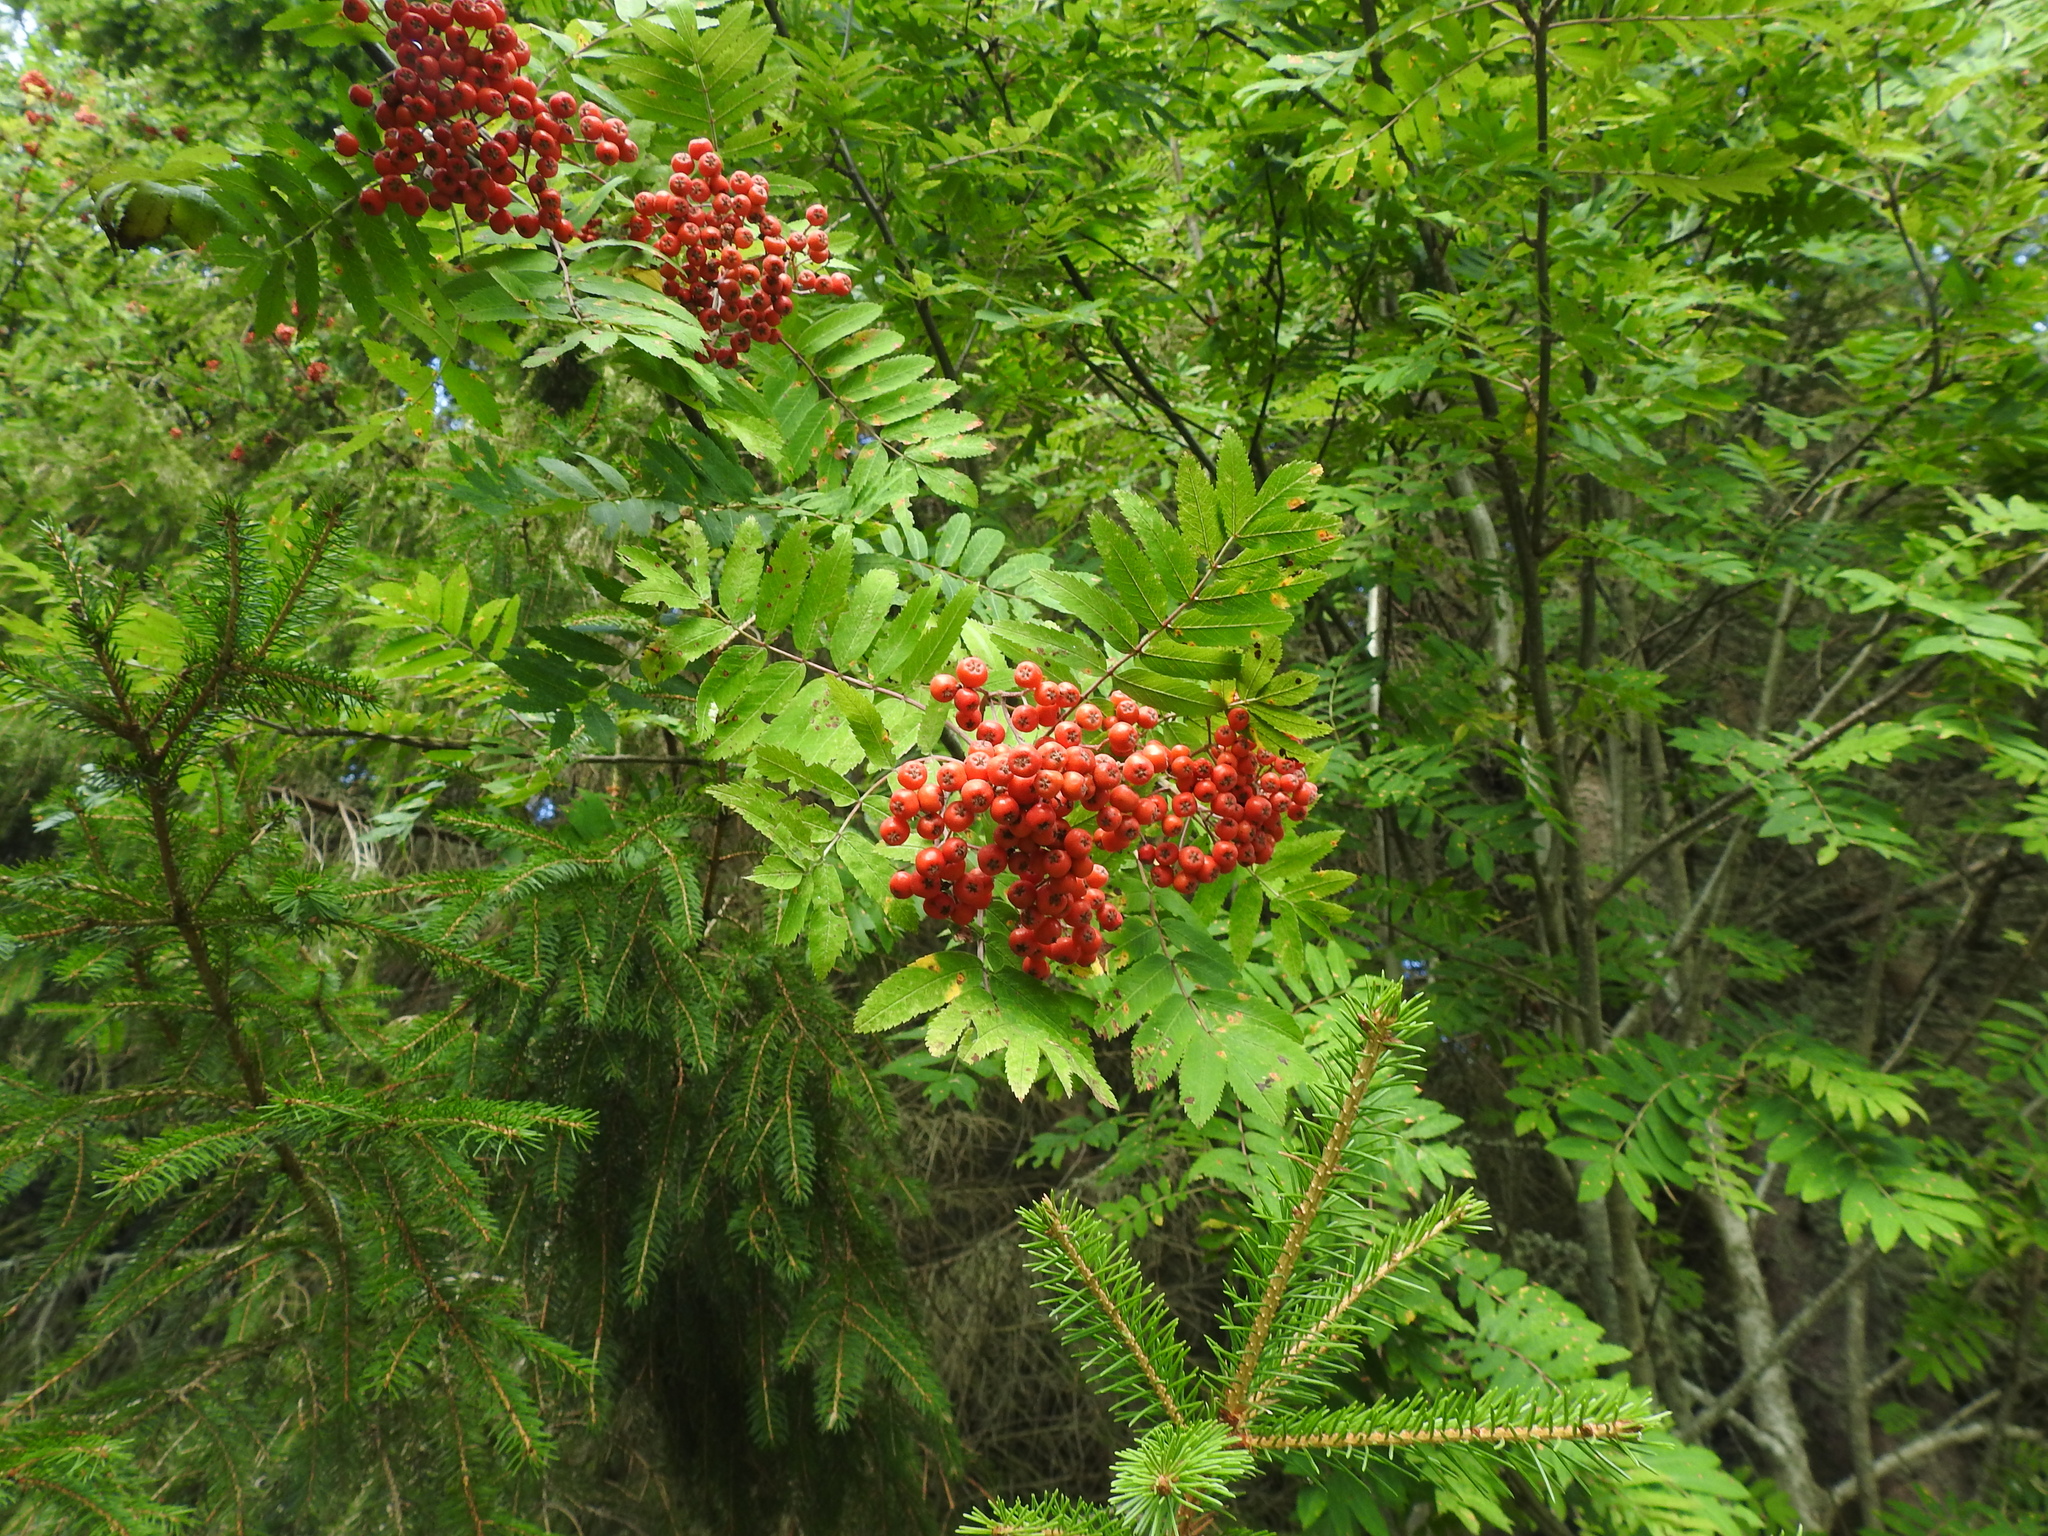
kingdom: Plantae
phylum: Tracheophyta
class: Magnoliopsida
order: Rosales
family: Rosaceae
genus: Sorbus
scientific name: Sorbus aucuparia
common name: Rowan
